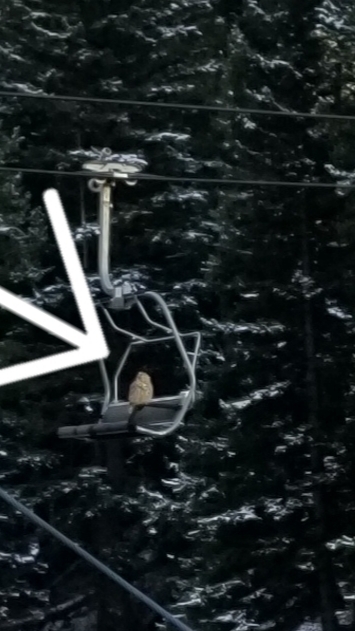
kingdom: Animalia
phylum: Chordata
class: Aves
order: Strigiformes
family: Strigidae
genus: Bubo
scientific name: Bubo virginianus
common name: Great horned owl
